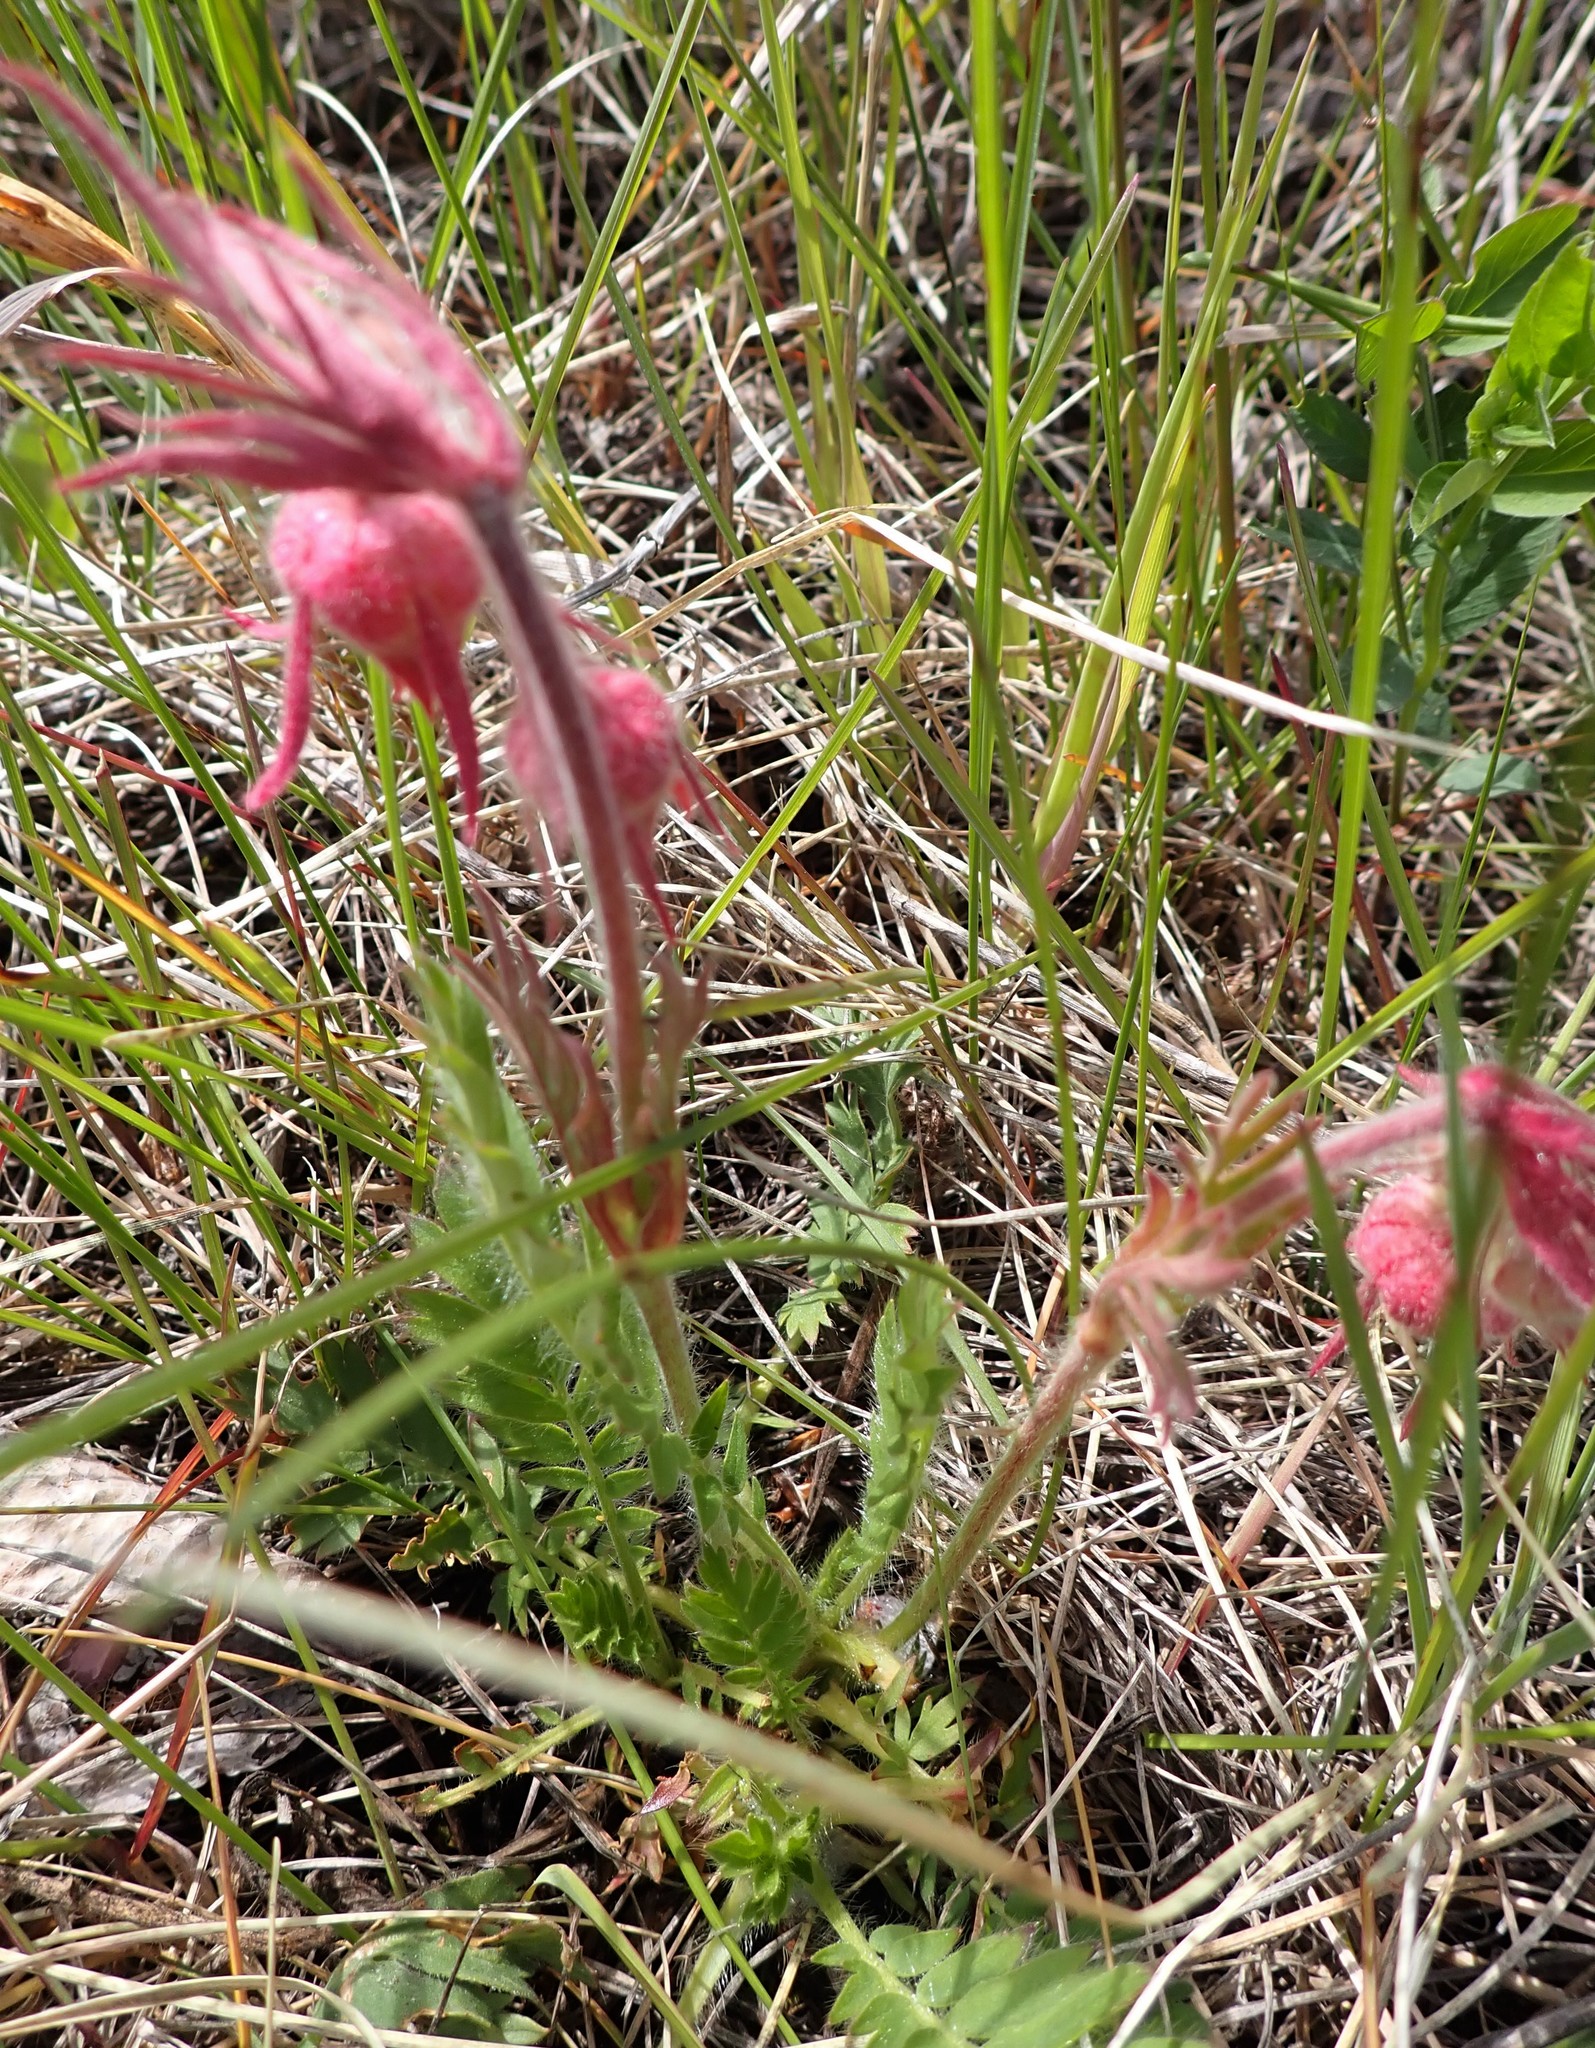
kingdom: Plantae
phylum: Tracheophyta
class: Magnoliopsida
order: Rosales
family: Rosaceae
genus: Geum
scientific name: Geum triflorum
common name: Old man's whiskers
